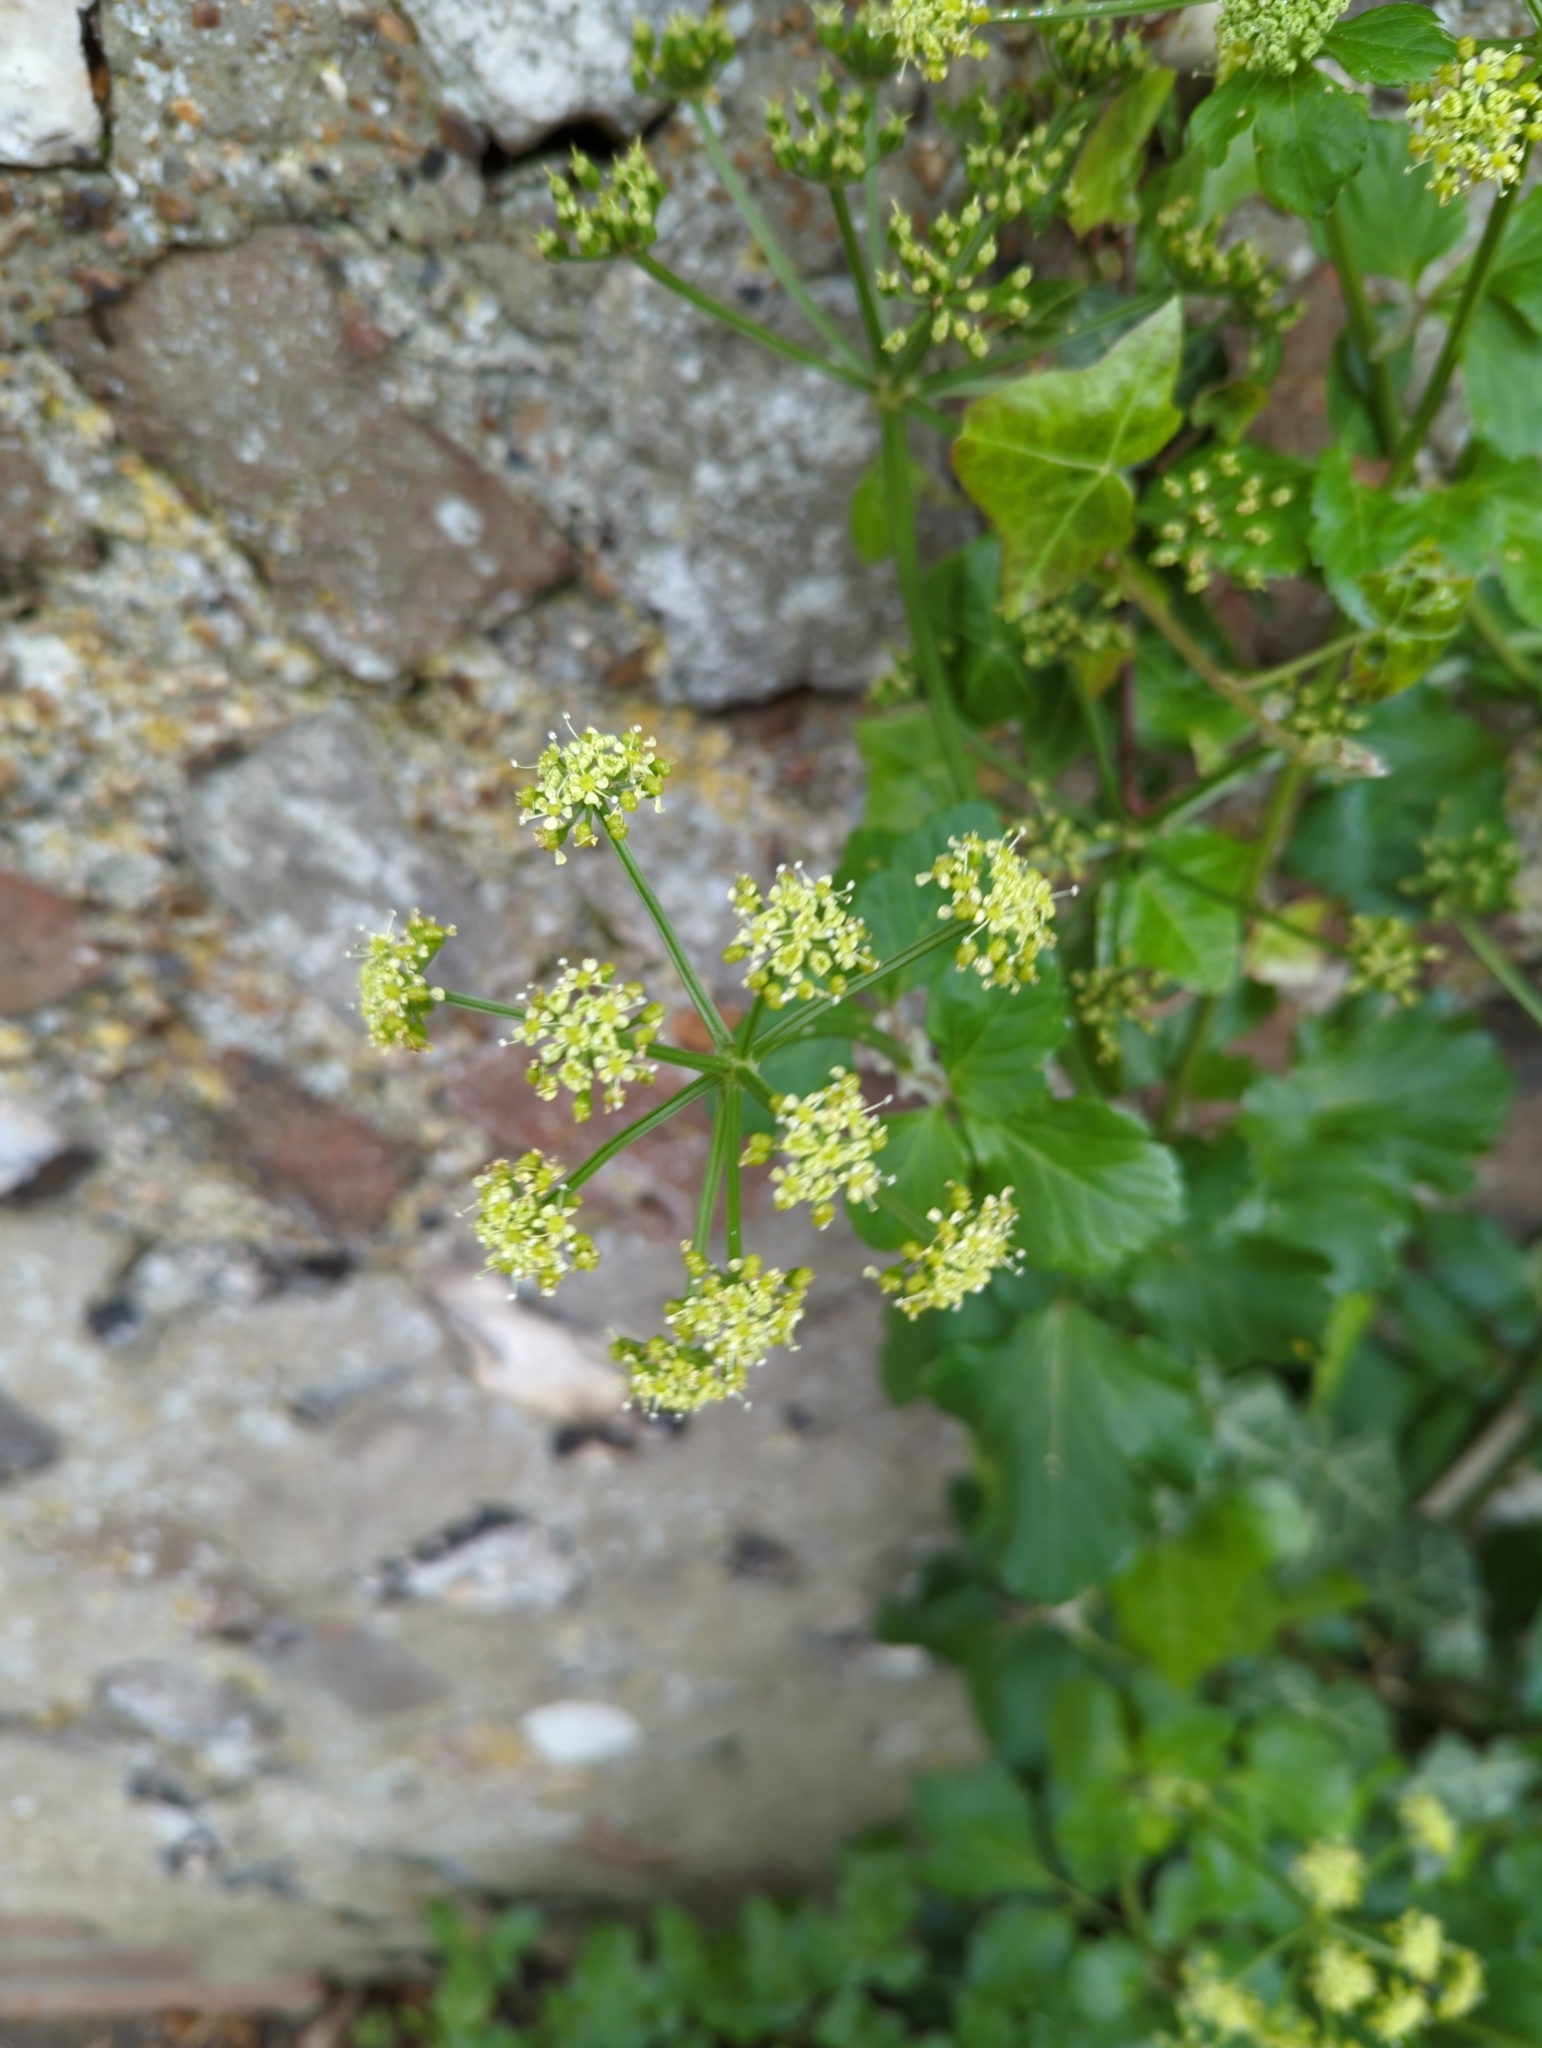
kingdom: Plantae
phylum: Tracheophyta
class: Magnoliopsida
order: Apiales
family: Apiaceae
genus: Smyrnium
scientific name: Smyrnium olusatrum
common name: Alexanders
